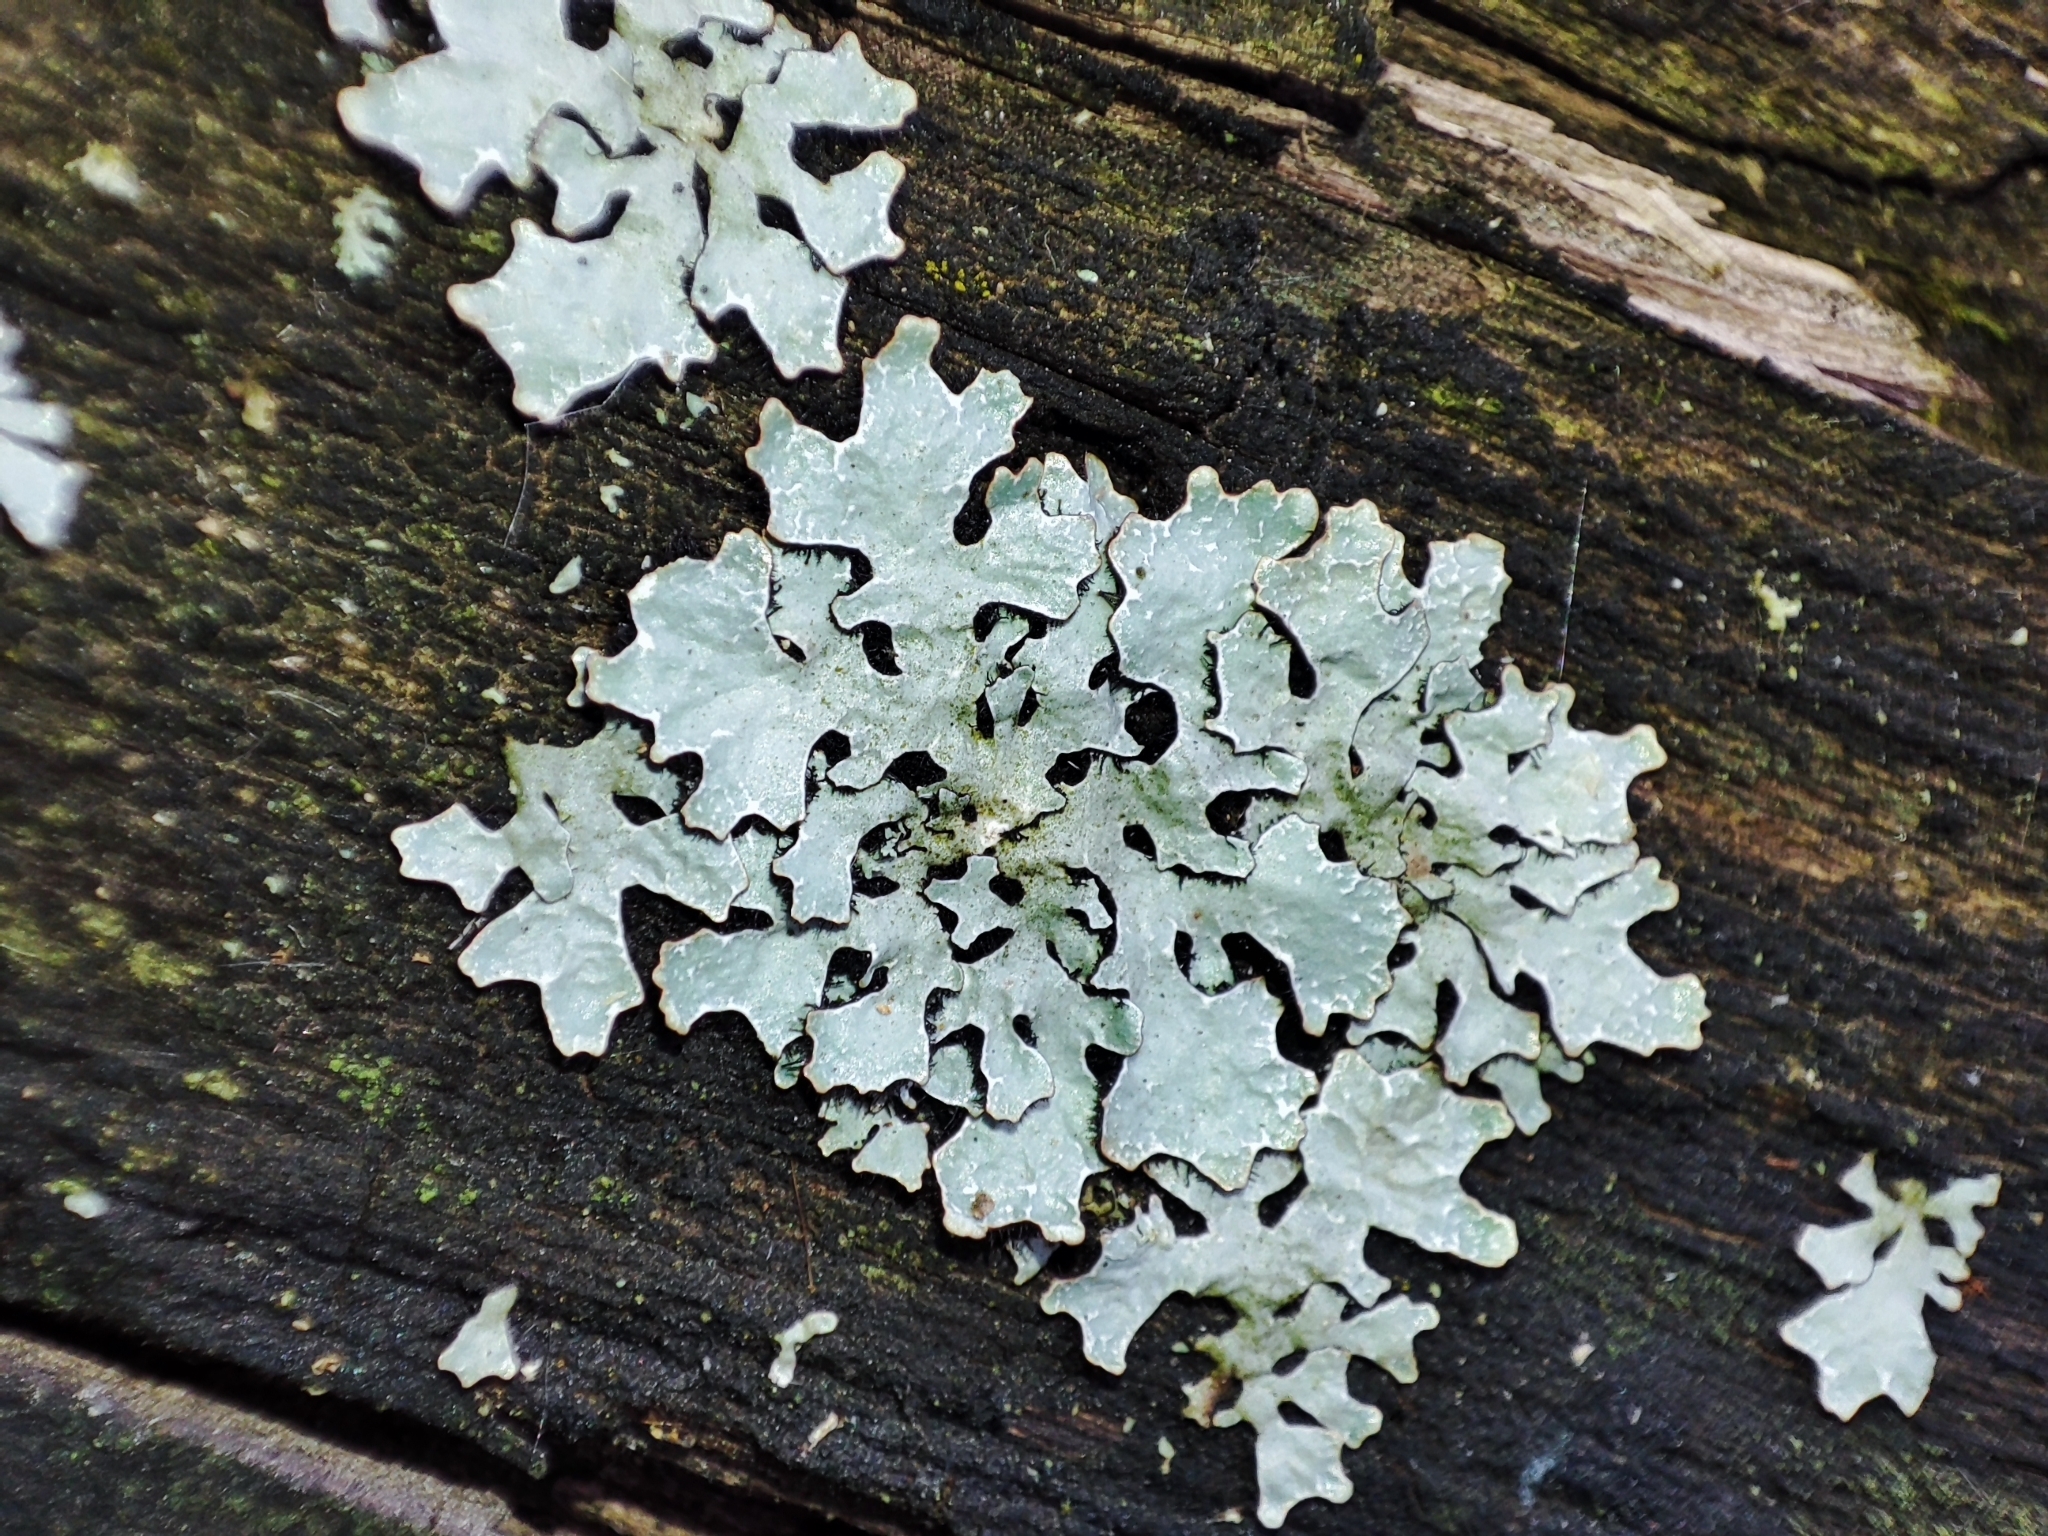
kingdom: Fungi
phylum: Ascomycota
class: Lecanoromycetes
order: Lecanorales
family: Parmeliaceae
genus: Parmelia
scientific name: Parmelia sulcata
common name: Netted shield lichen
